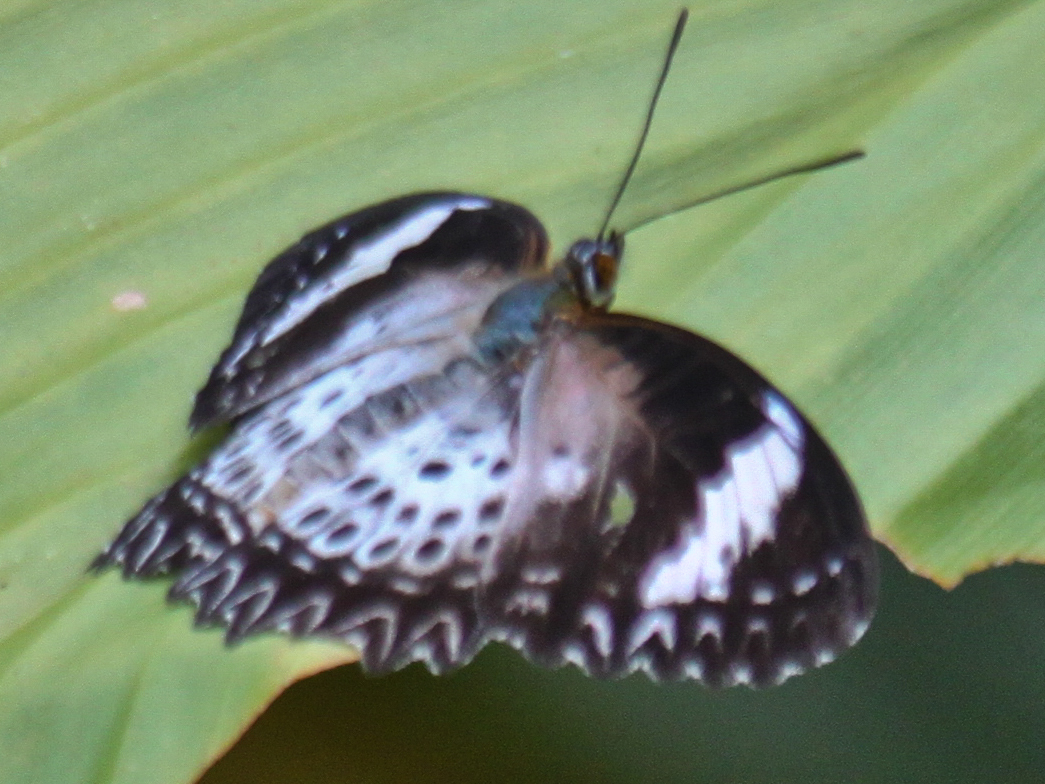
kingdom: Animalia
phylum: Arthropoda
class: Insecta
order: Lepidoptera
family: Nymphalidae
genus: Cethosia
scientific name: Cethosia cyane
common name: Leopard lacewing butterfly
